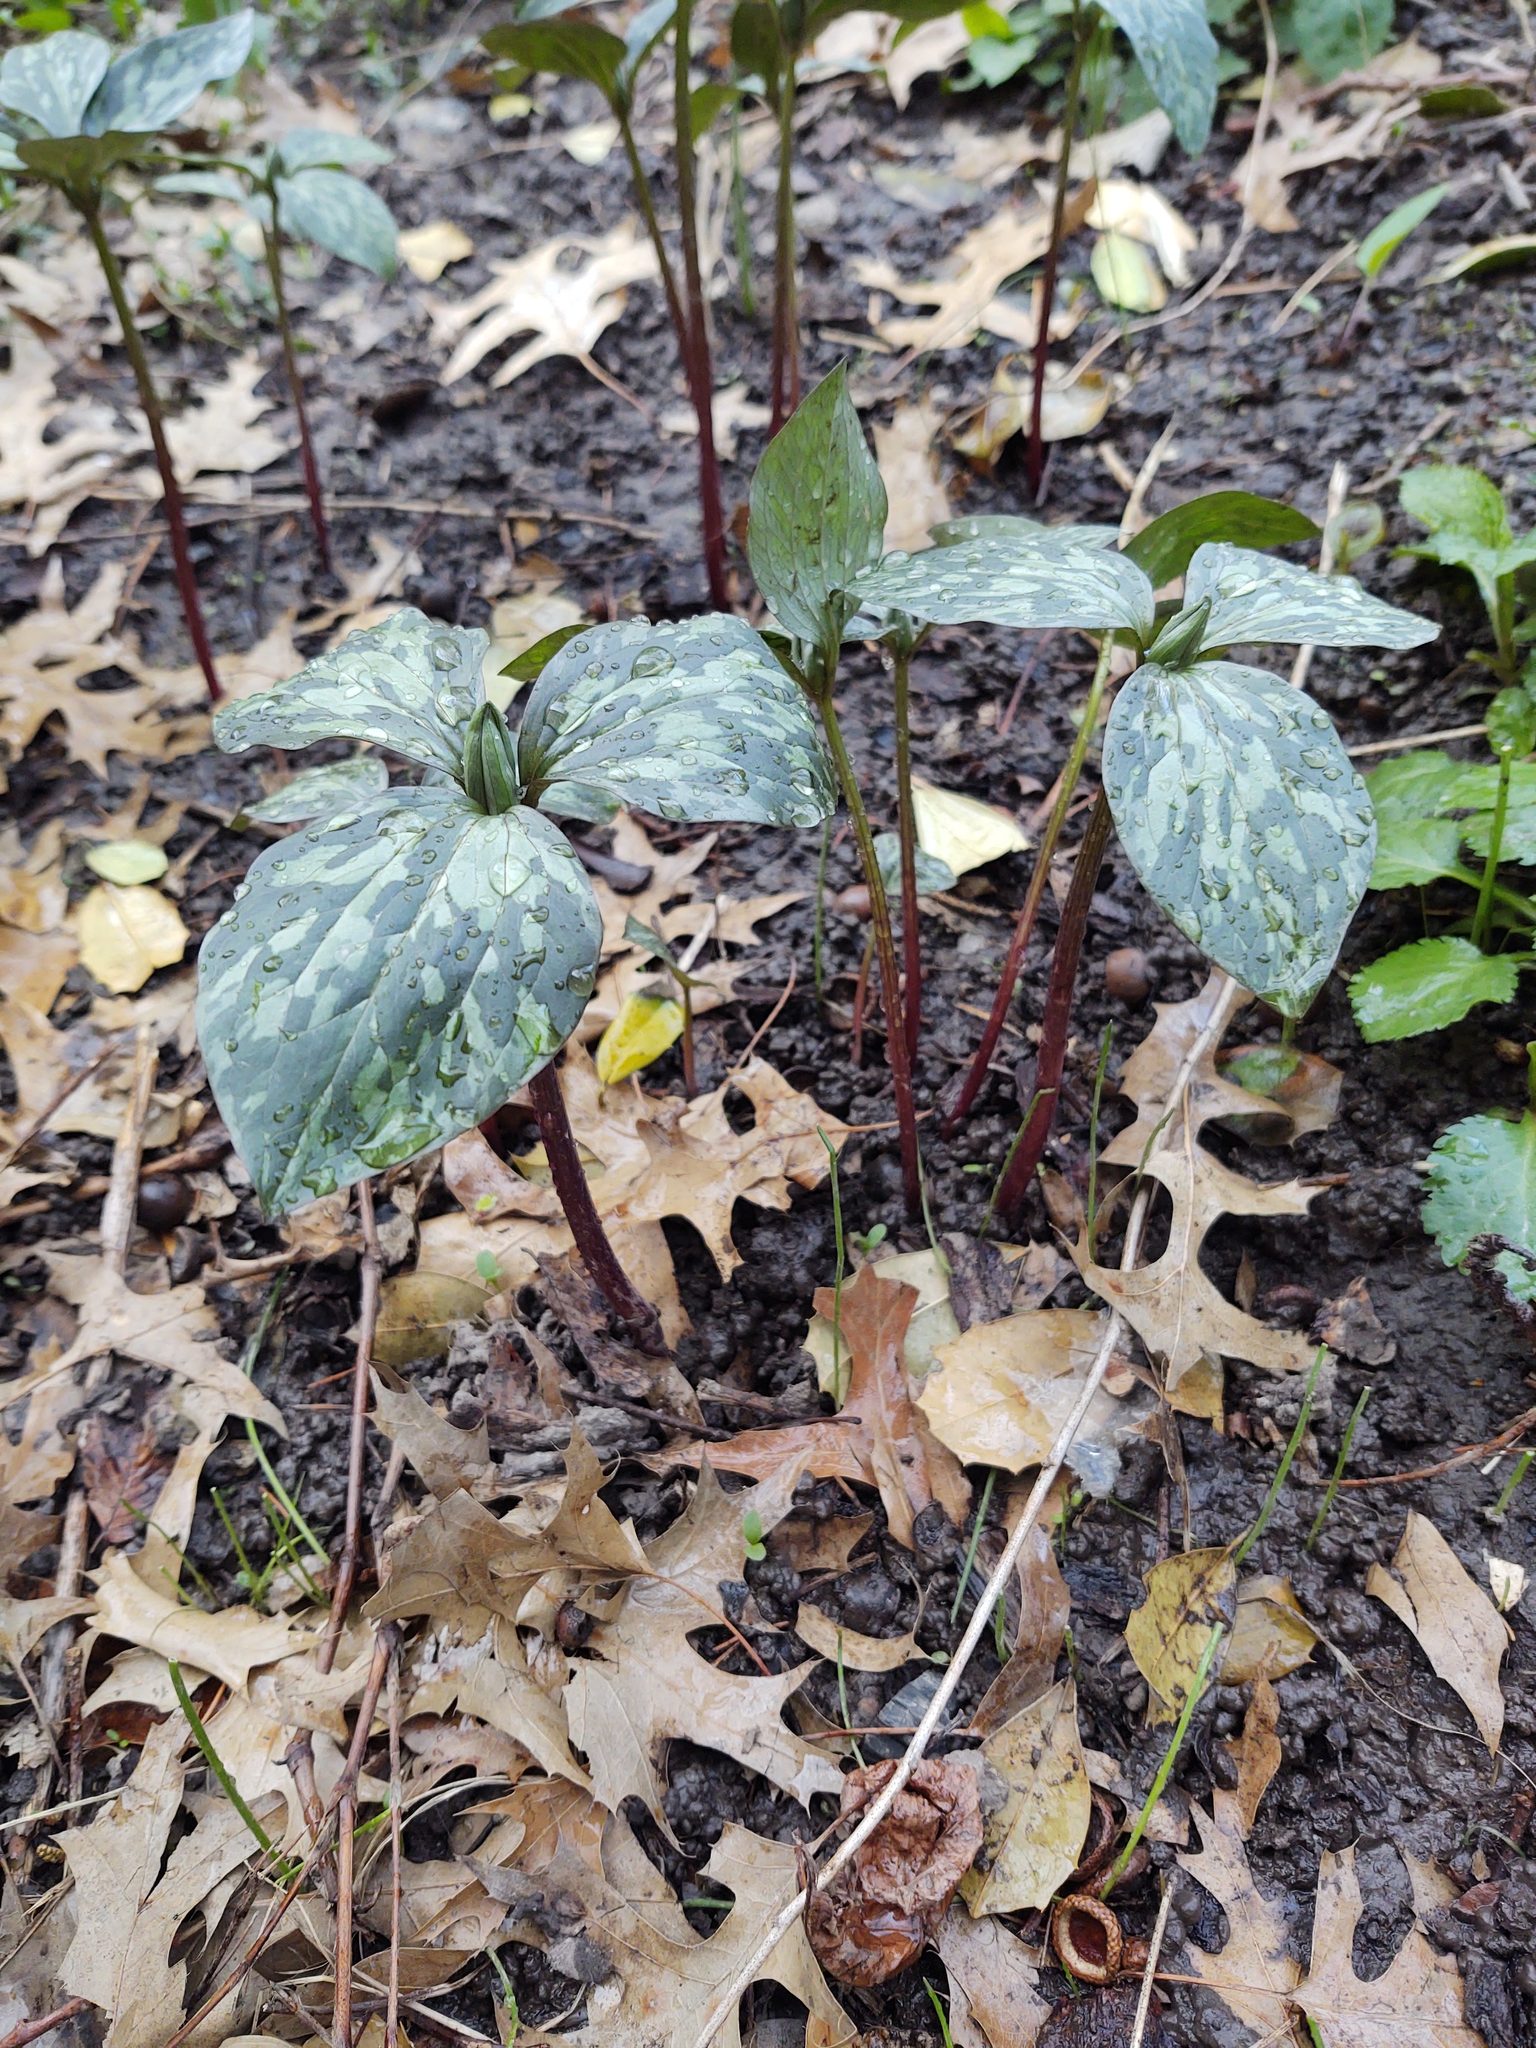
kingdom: Plantae
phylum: Tracheophyta
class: Liliopsida
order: Liliales
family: Melanthiaceae
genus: Trillium
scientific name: Trillium recurvatum
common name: Bloody butcher
